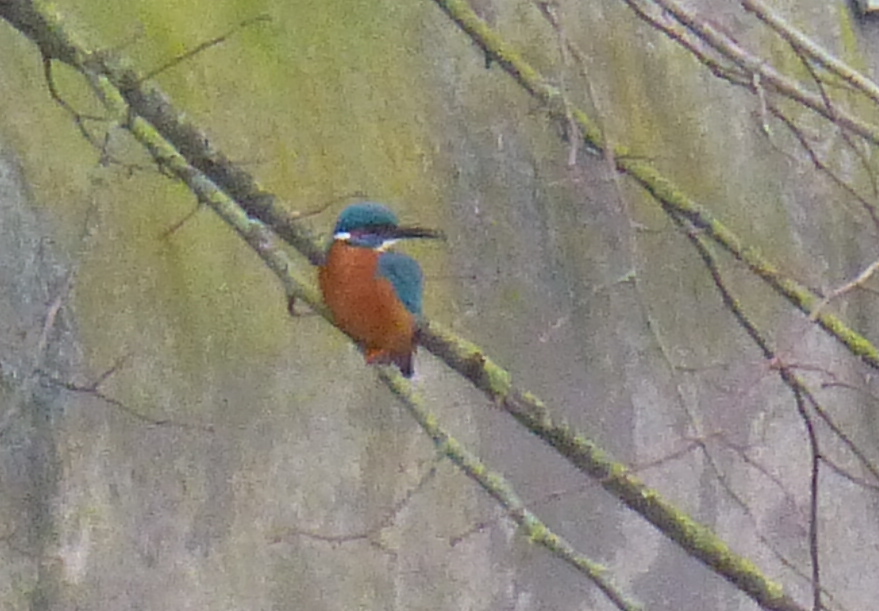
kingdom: Animalia
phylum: Chordata
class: Aves
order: Coraciiformes
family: Alcedinidae
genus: Alcedo
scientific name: Alcedo atthis
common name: Common kingfisher
